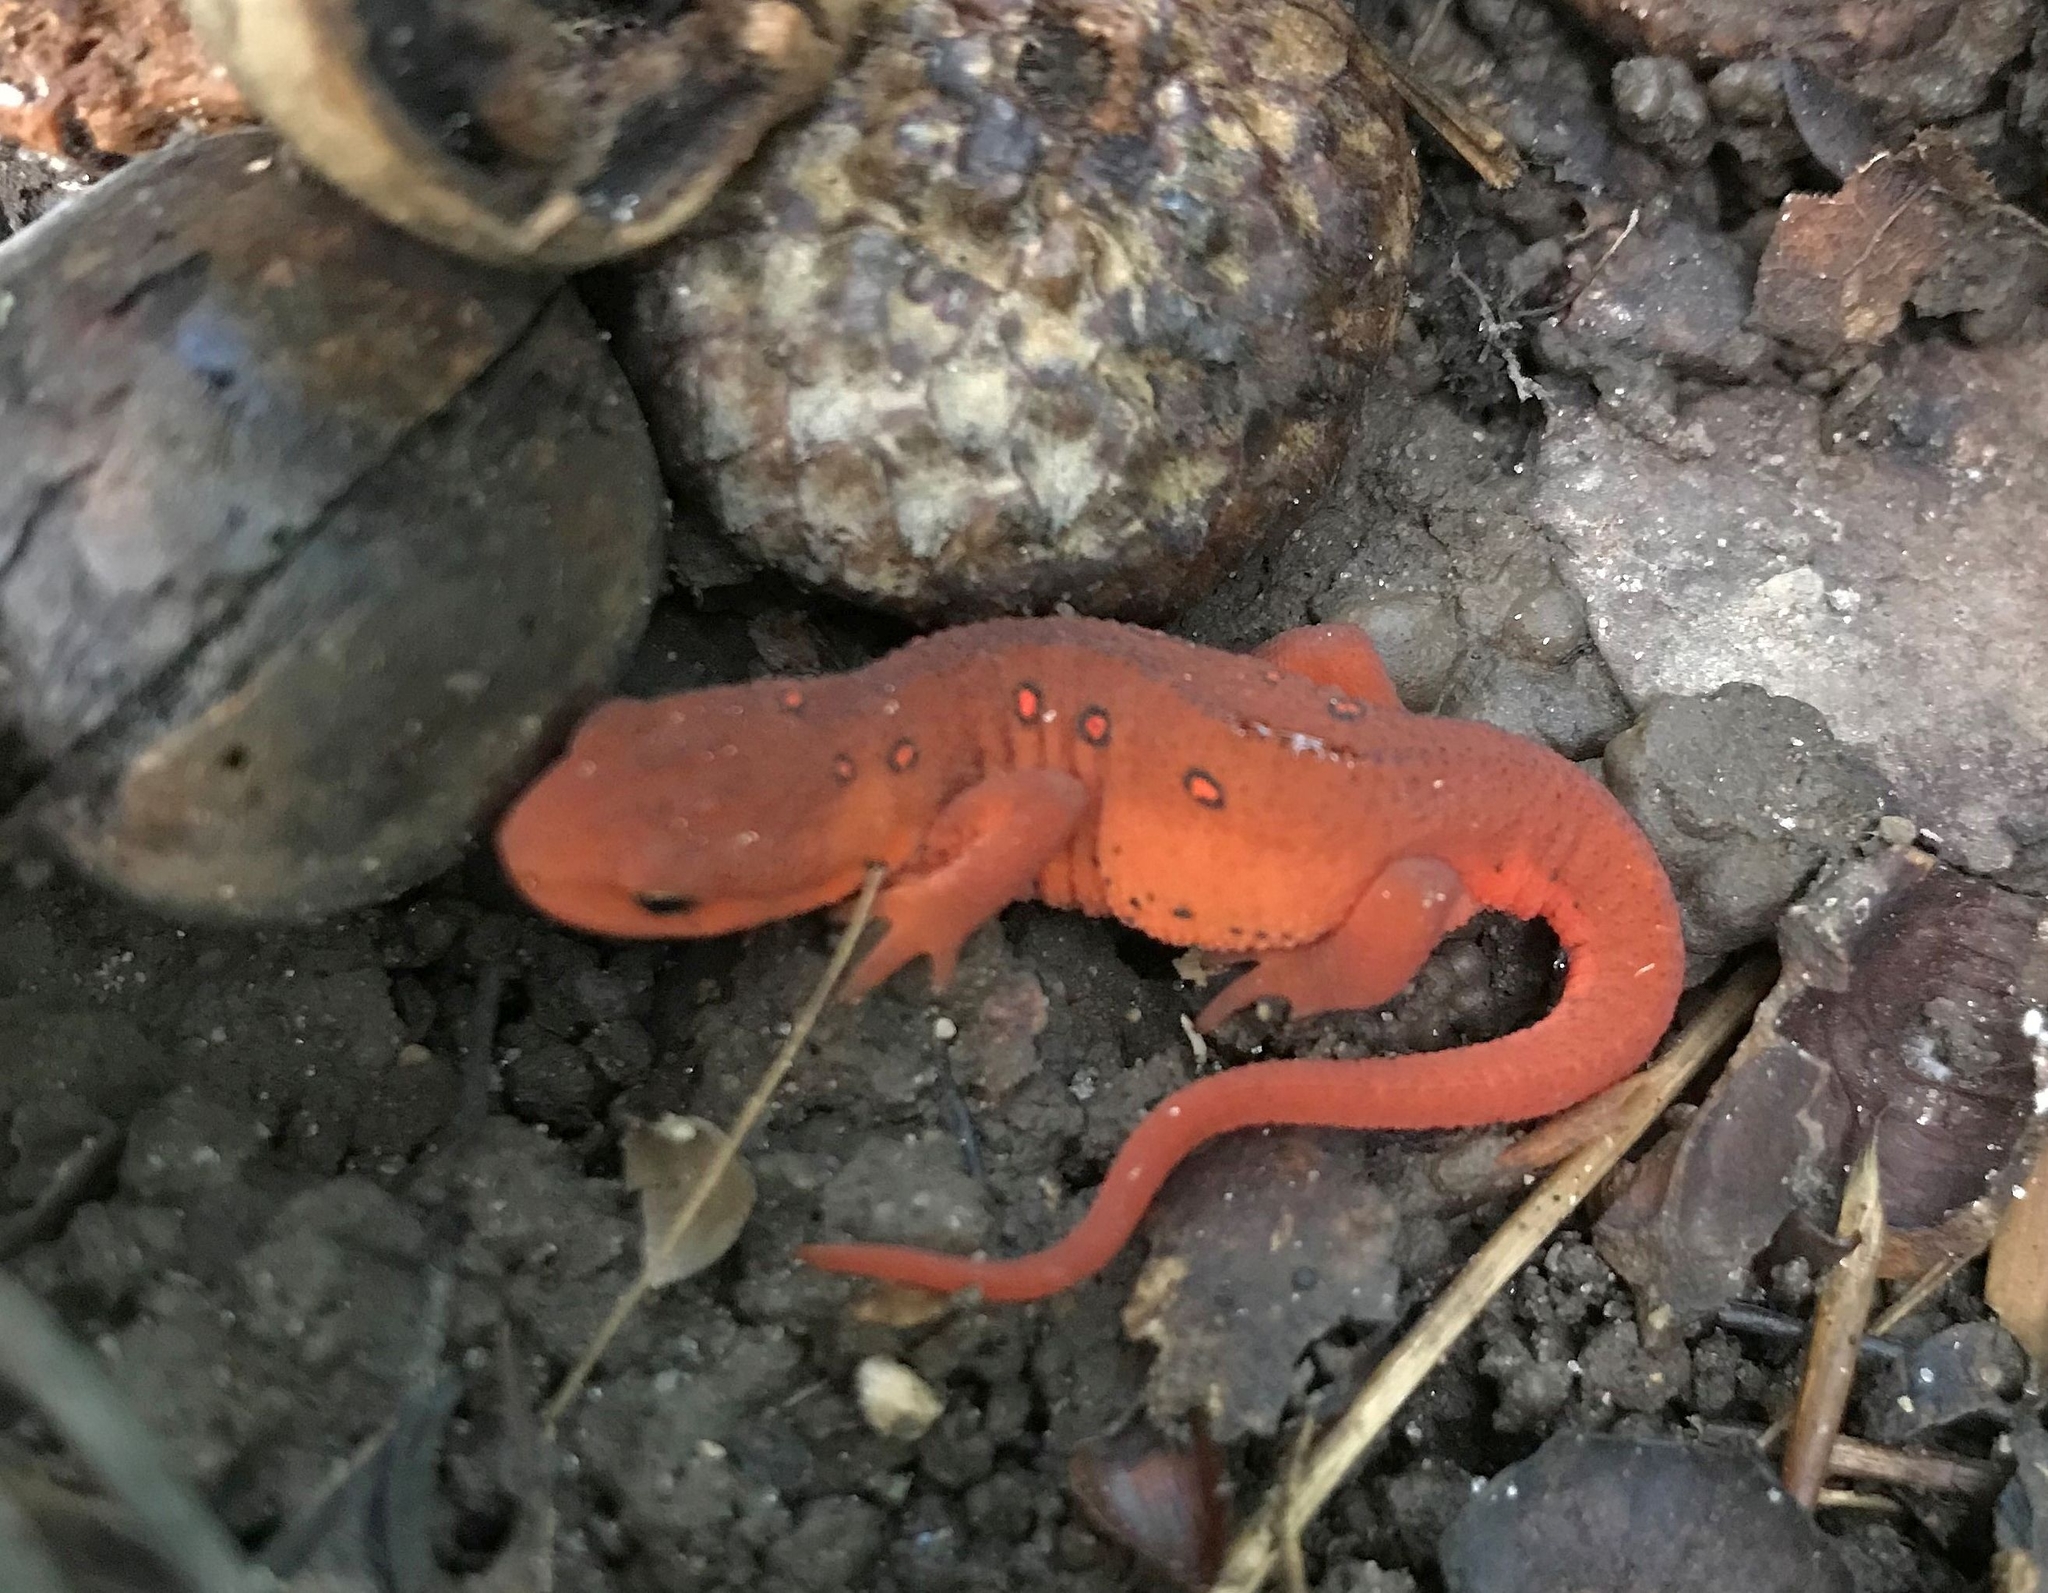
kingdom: Animalia
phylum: Chordata
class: Amphibia
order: Caudata
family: Salamandridae
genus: Notophthalmus
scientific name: Notophthalmus viridescens
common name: Eastern newt
